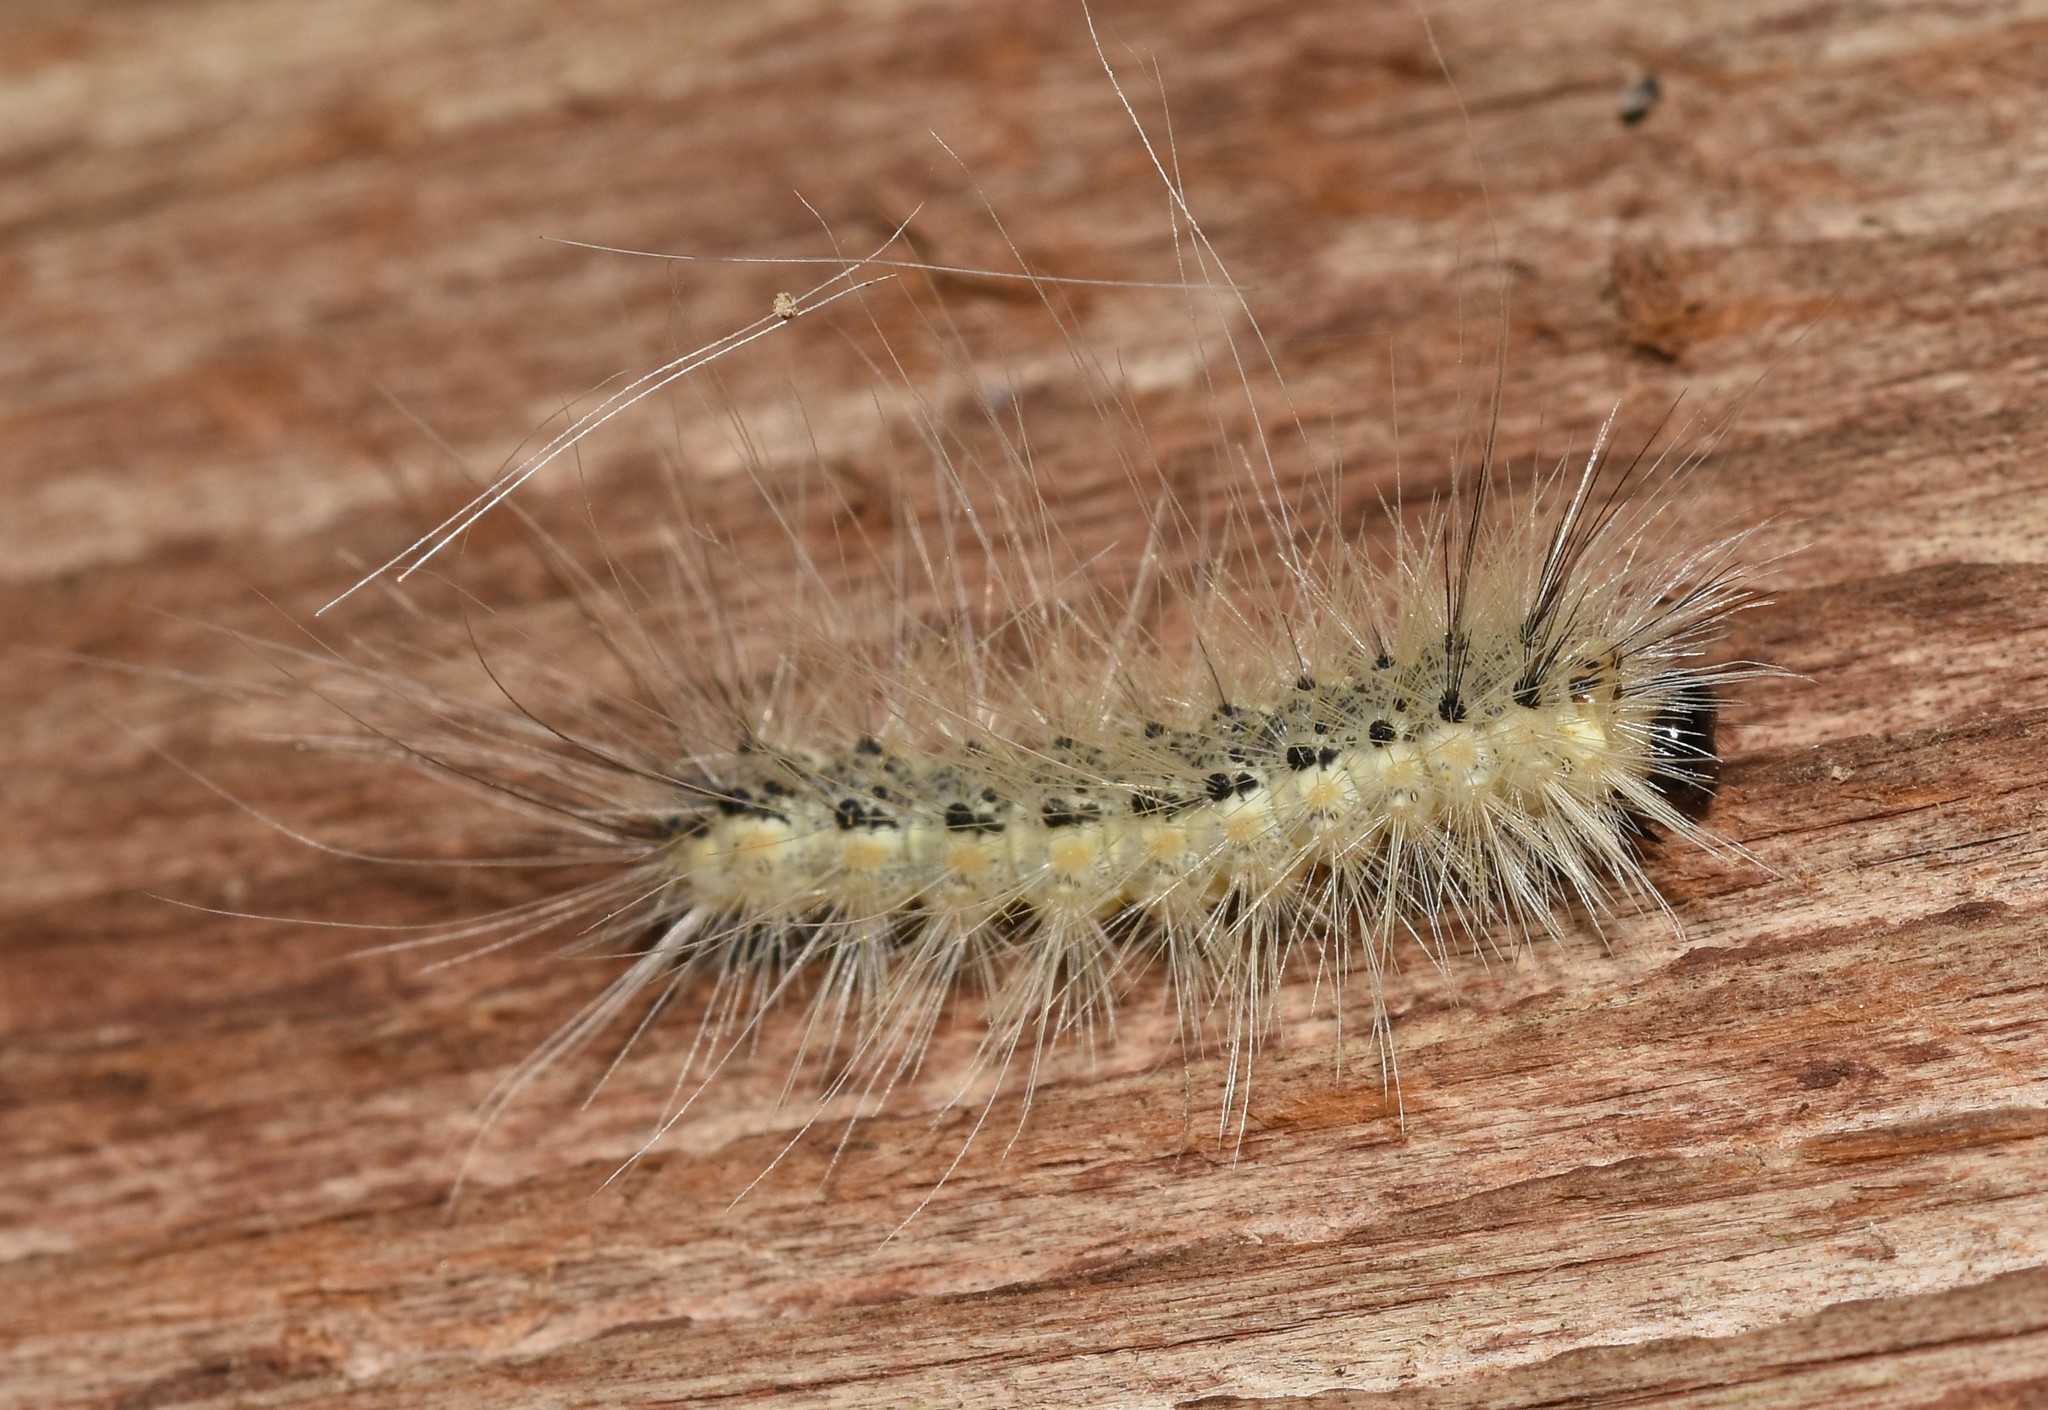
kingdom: Animalia
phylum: Arthropoda
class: Insecta
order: Lepidoptera
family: Erebidae
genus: Hyphantria
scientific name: Hyphantria cunea
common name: American white moth
